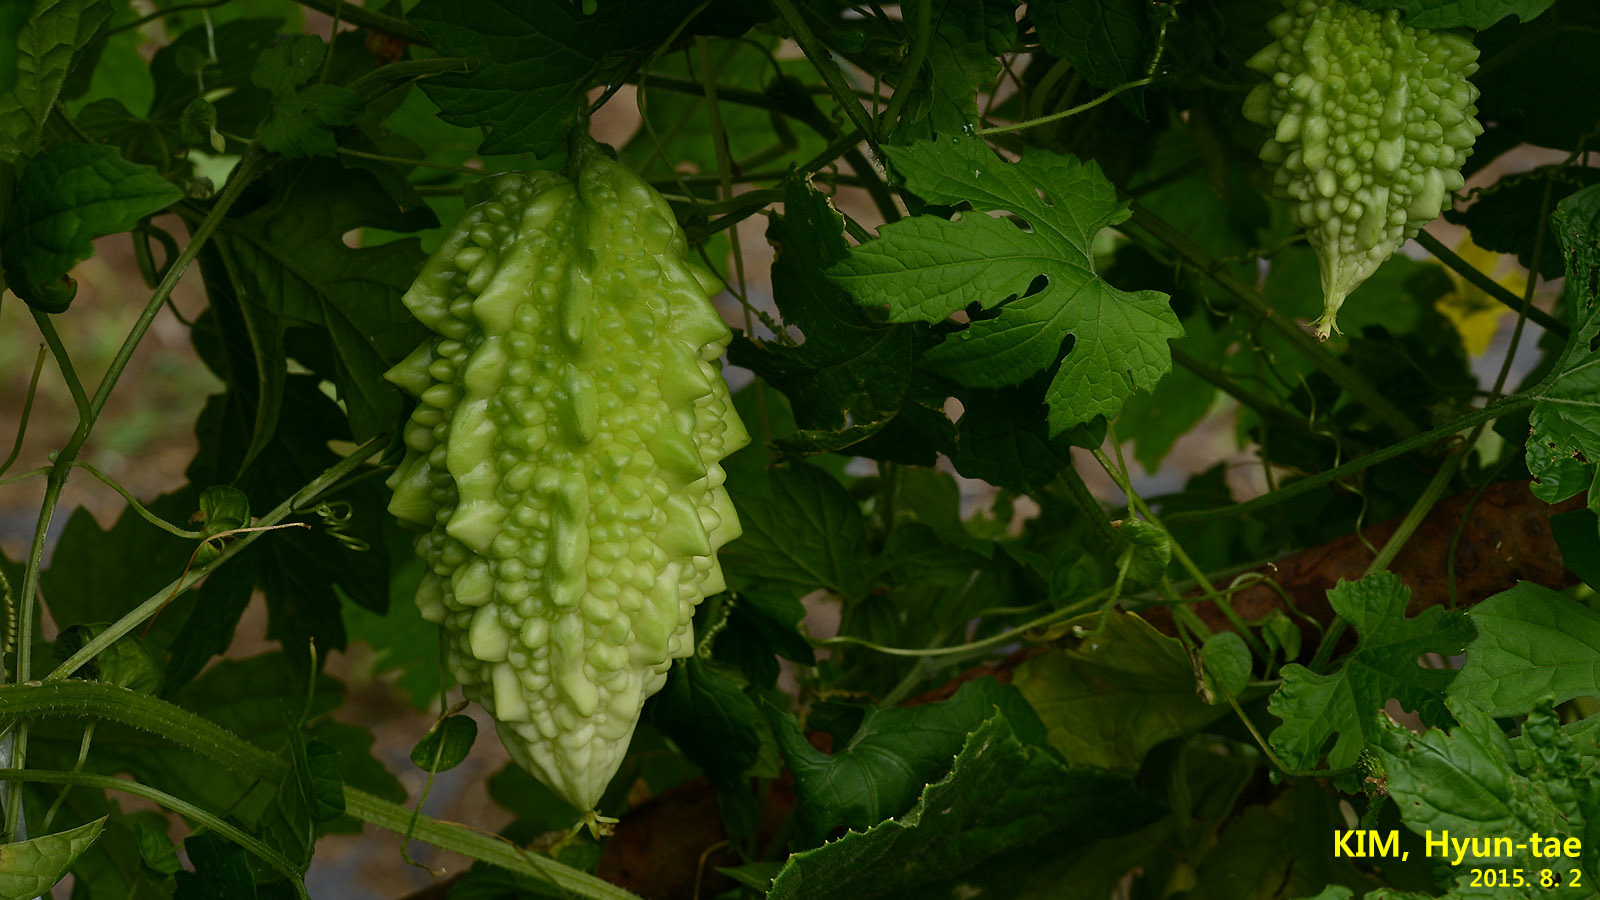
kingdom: Plantae
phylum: Tracheophyta
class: Magnoliopsida
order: Cucurbitales
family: Cucurbitaceae
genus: Momordica
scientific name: Momordica charantia
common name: Balsampear
